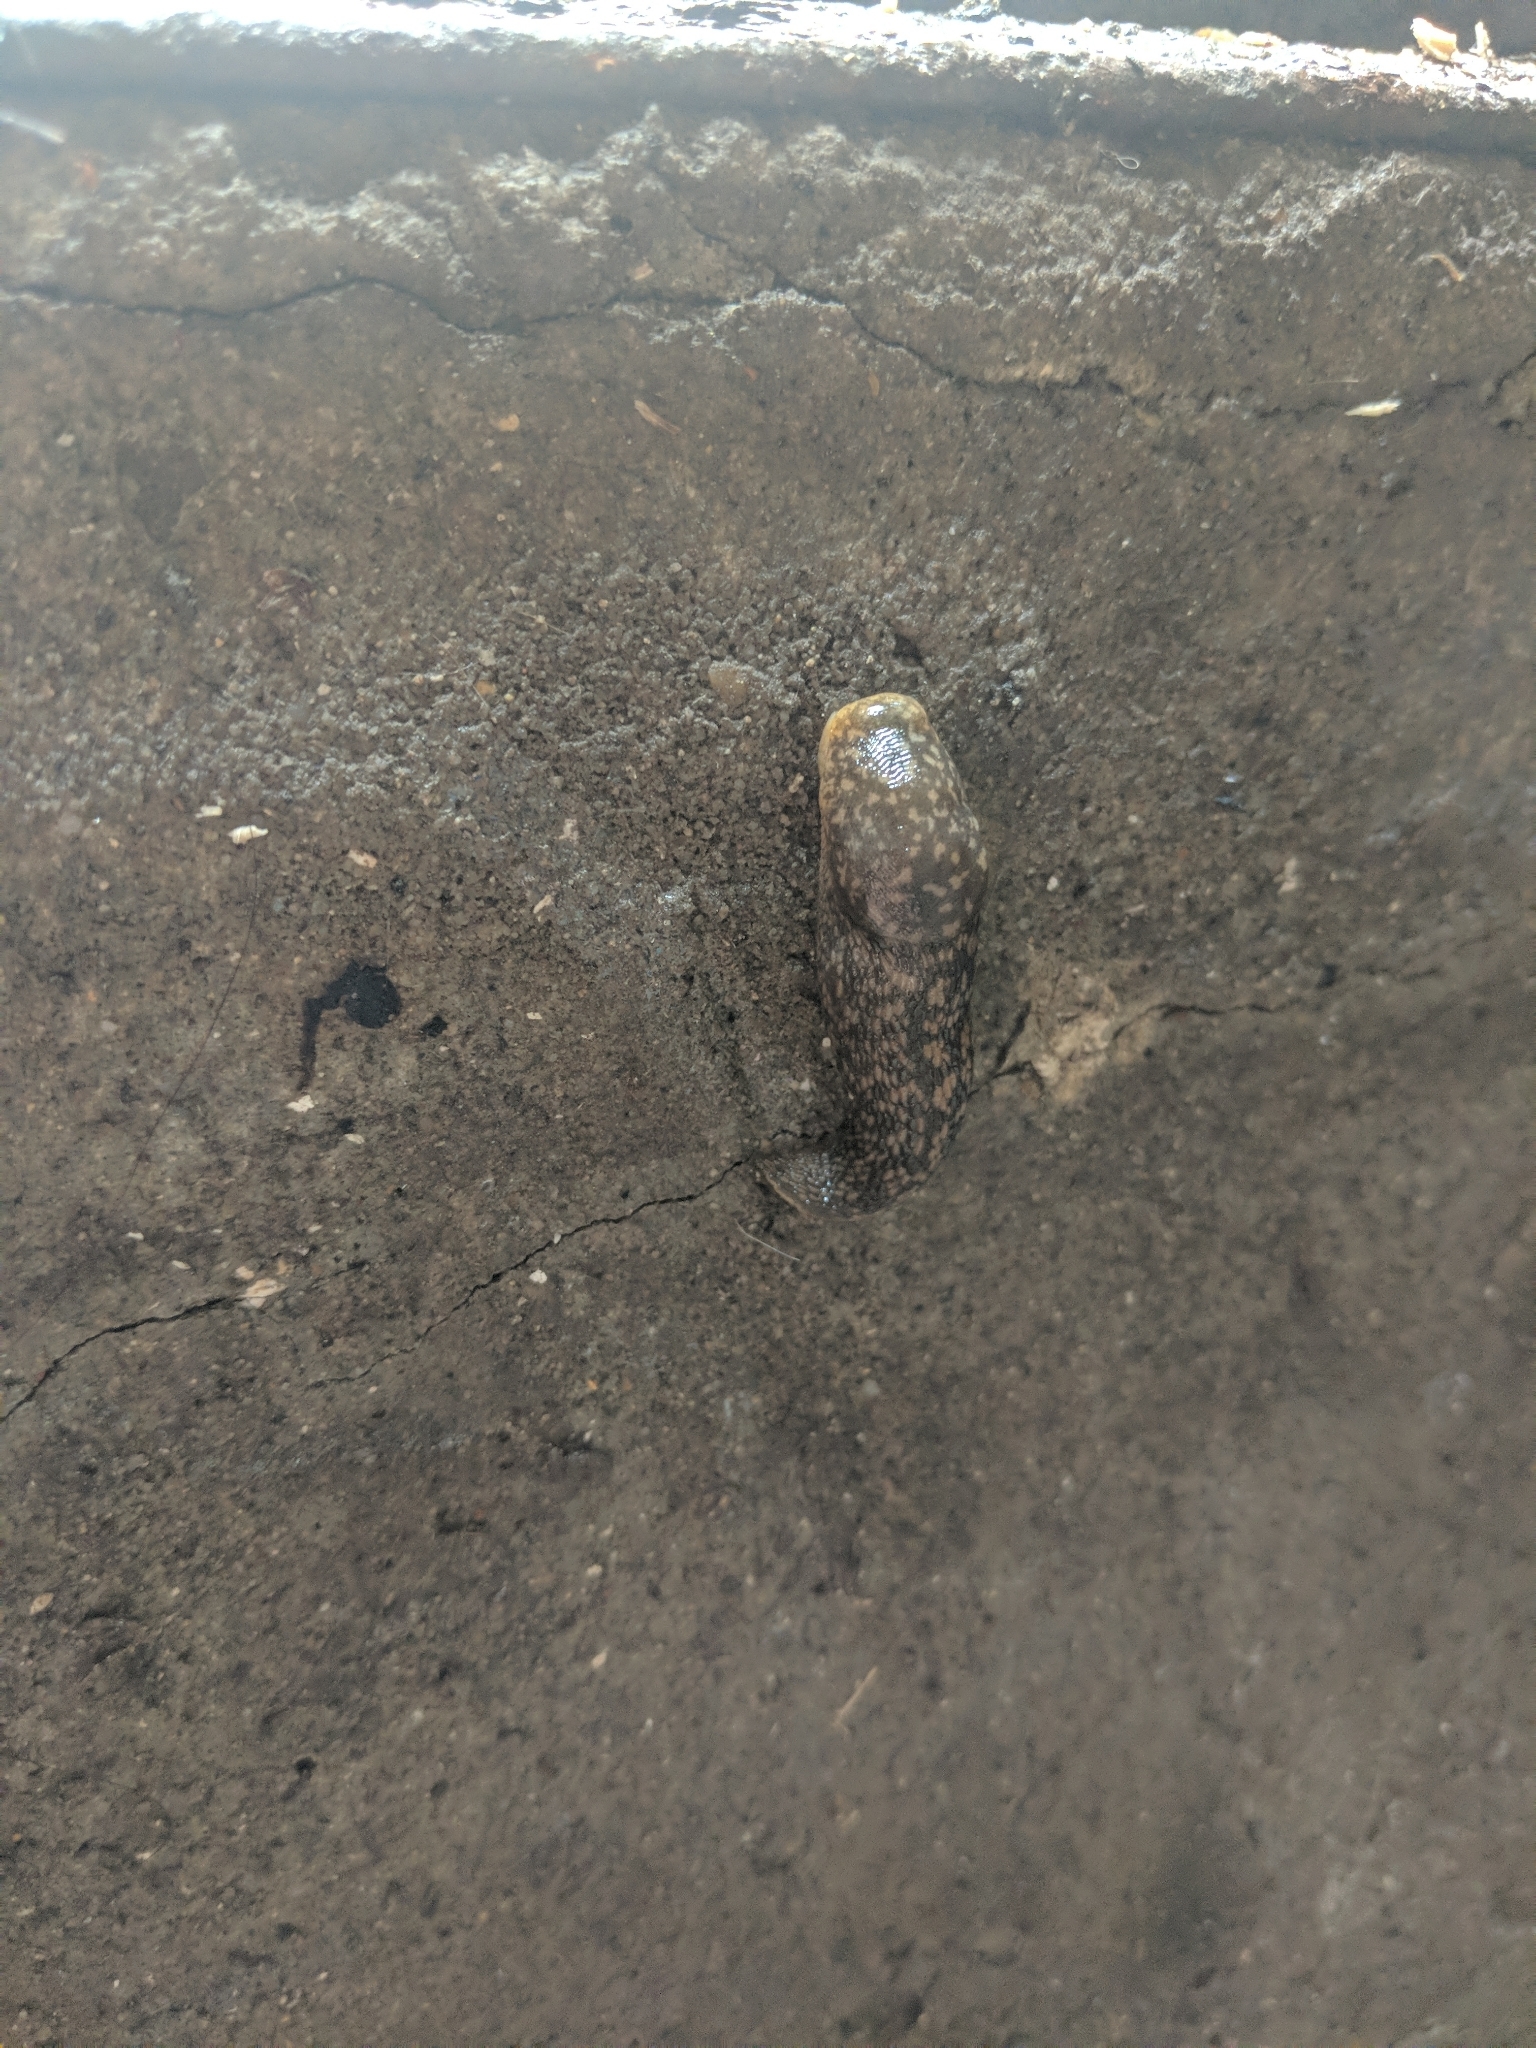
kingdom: Animalia
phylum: Mollusca
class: Gastropoda
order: Stylommatophora
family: Limacidae
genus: Limacus
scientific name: Limacus flavus
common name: Yellow gardenslug
